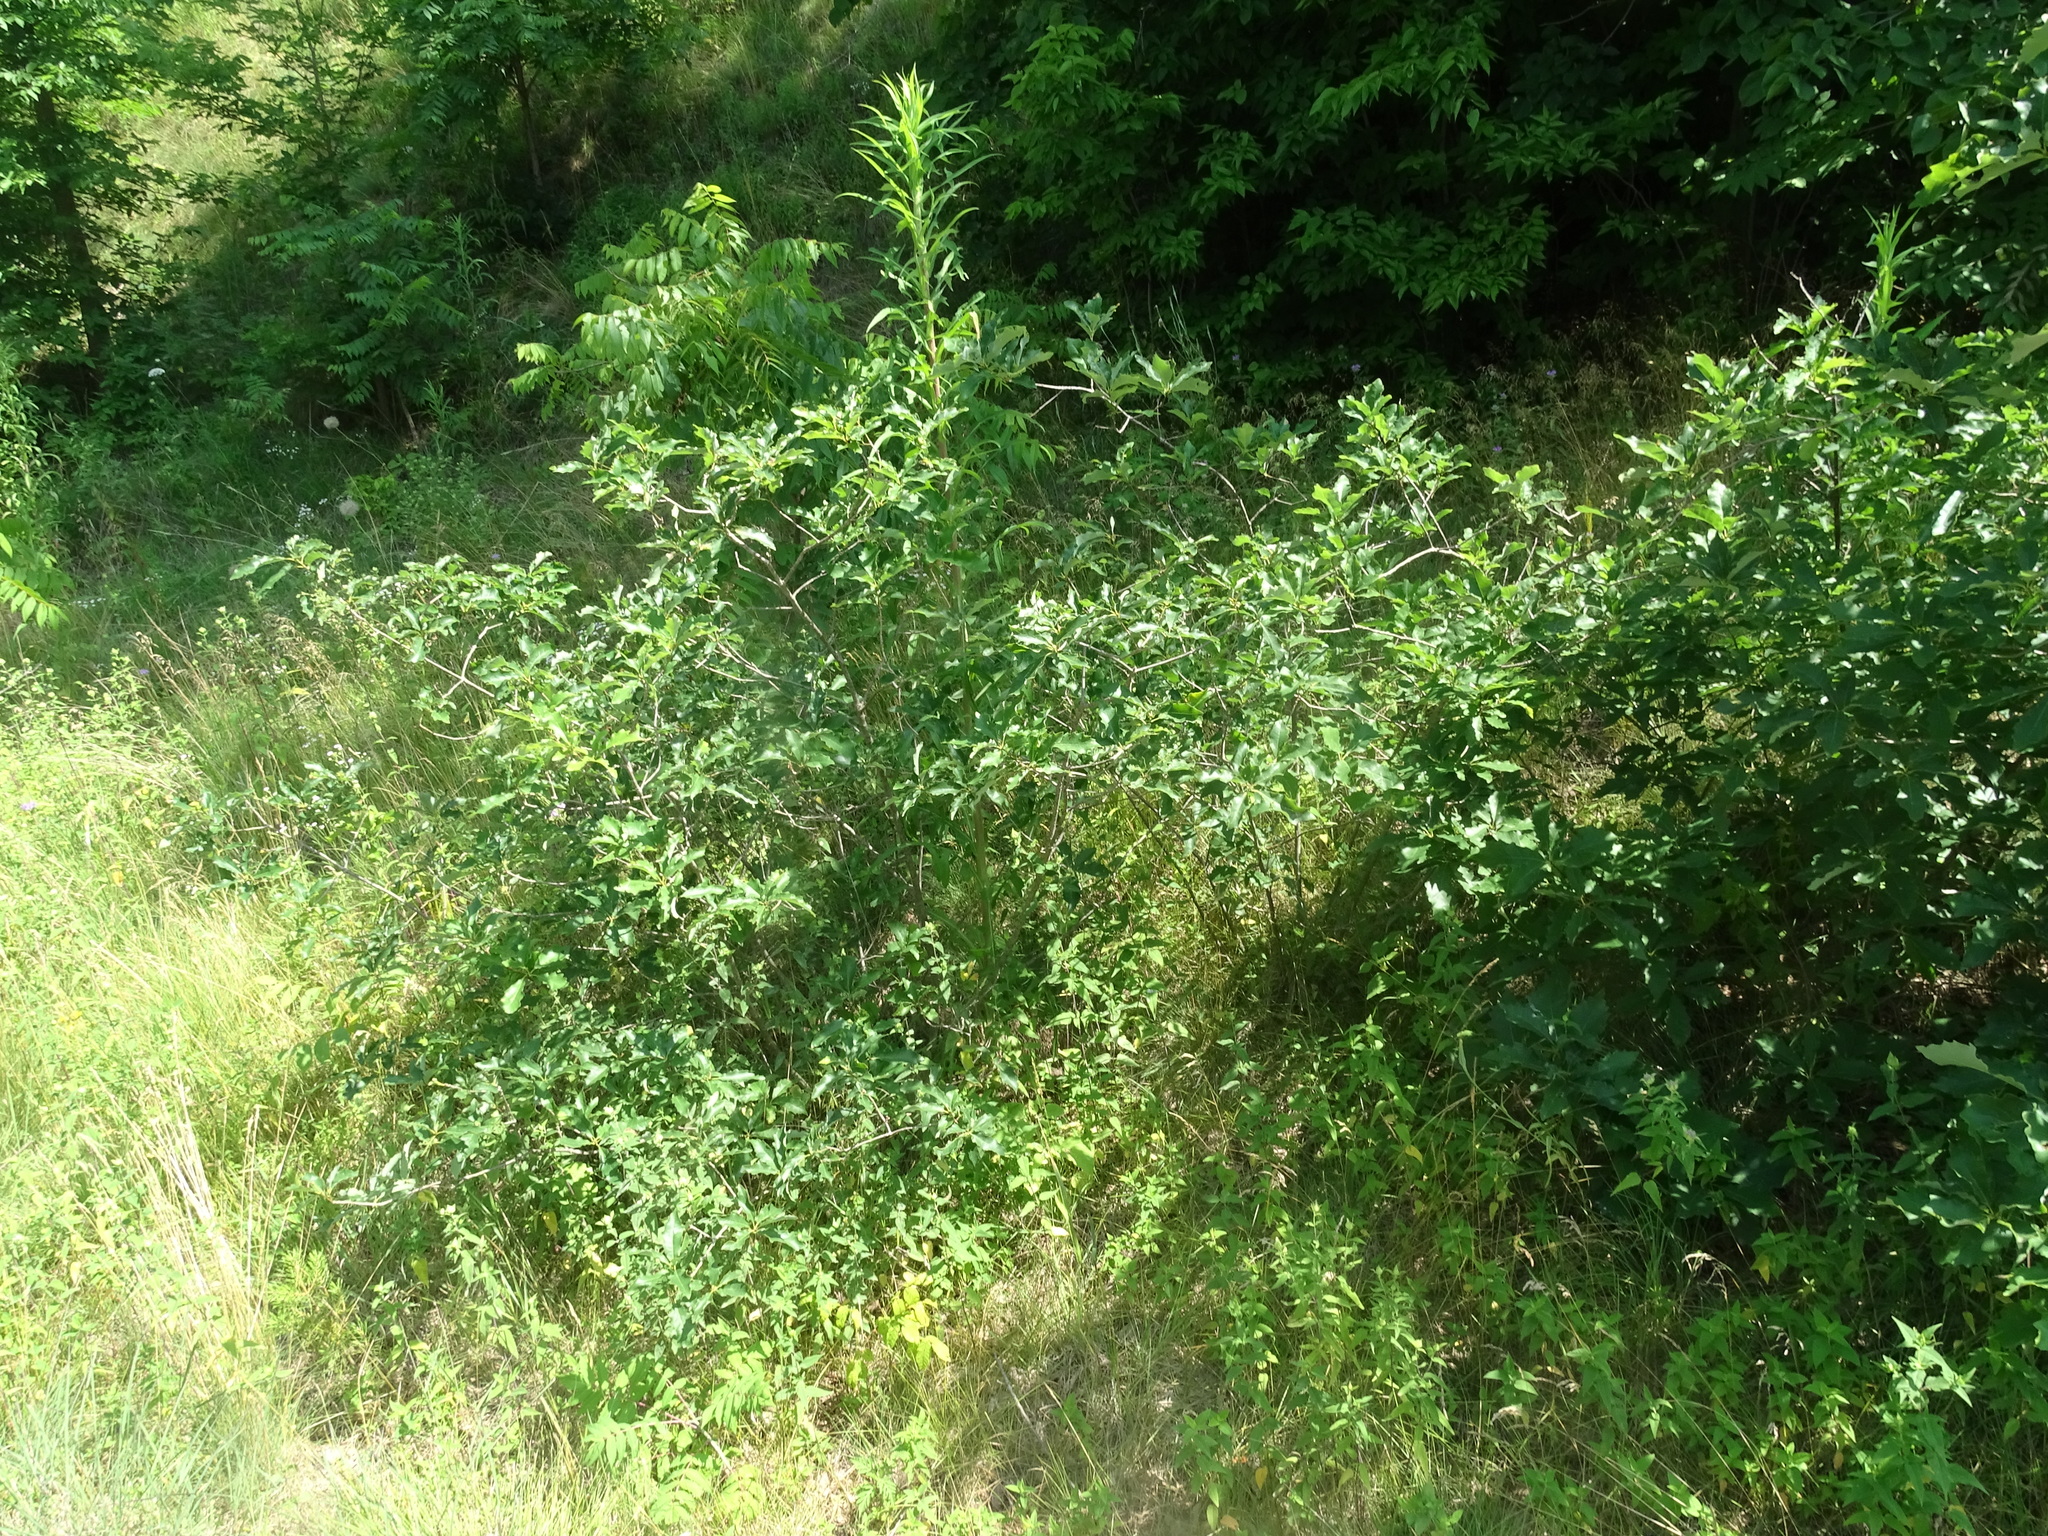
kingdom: Plantae
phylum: Tracheophyta
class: Magnoliopsida
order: Fagales
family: Fagaceae
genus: Quercus
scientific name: Quercus prinoides
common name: Dwarf chinkapin oak
